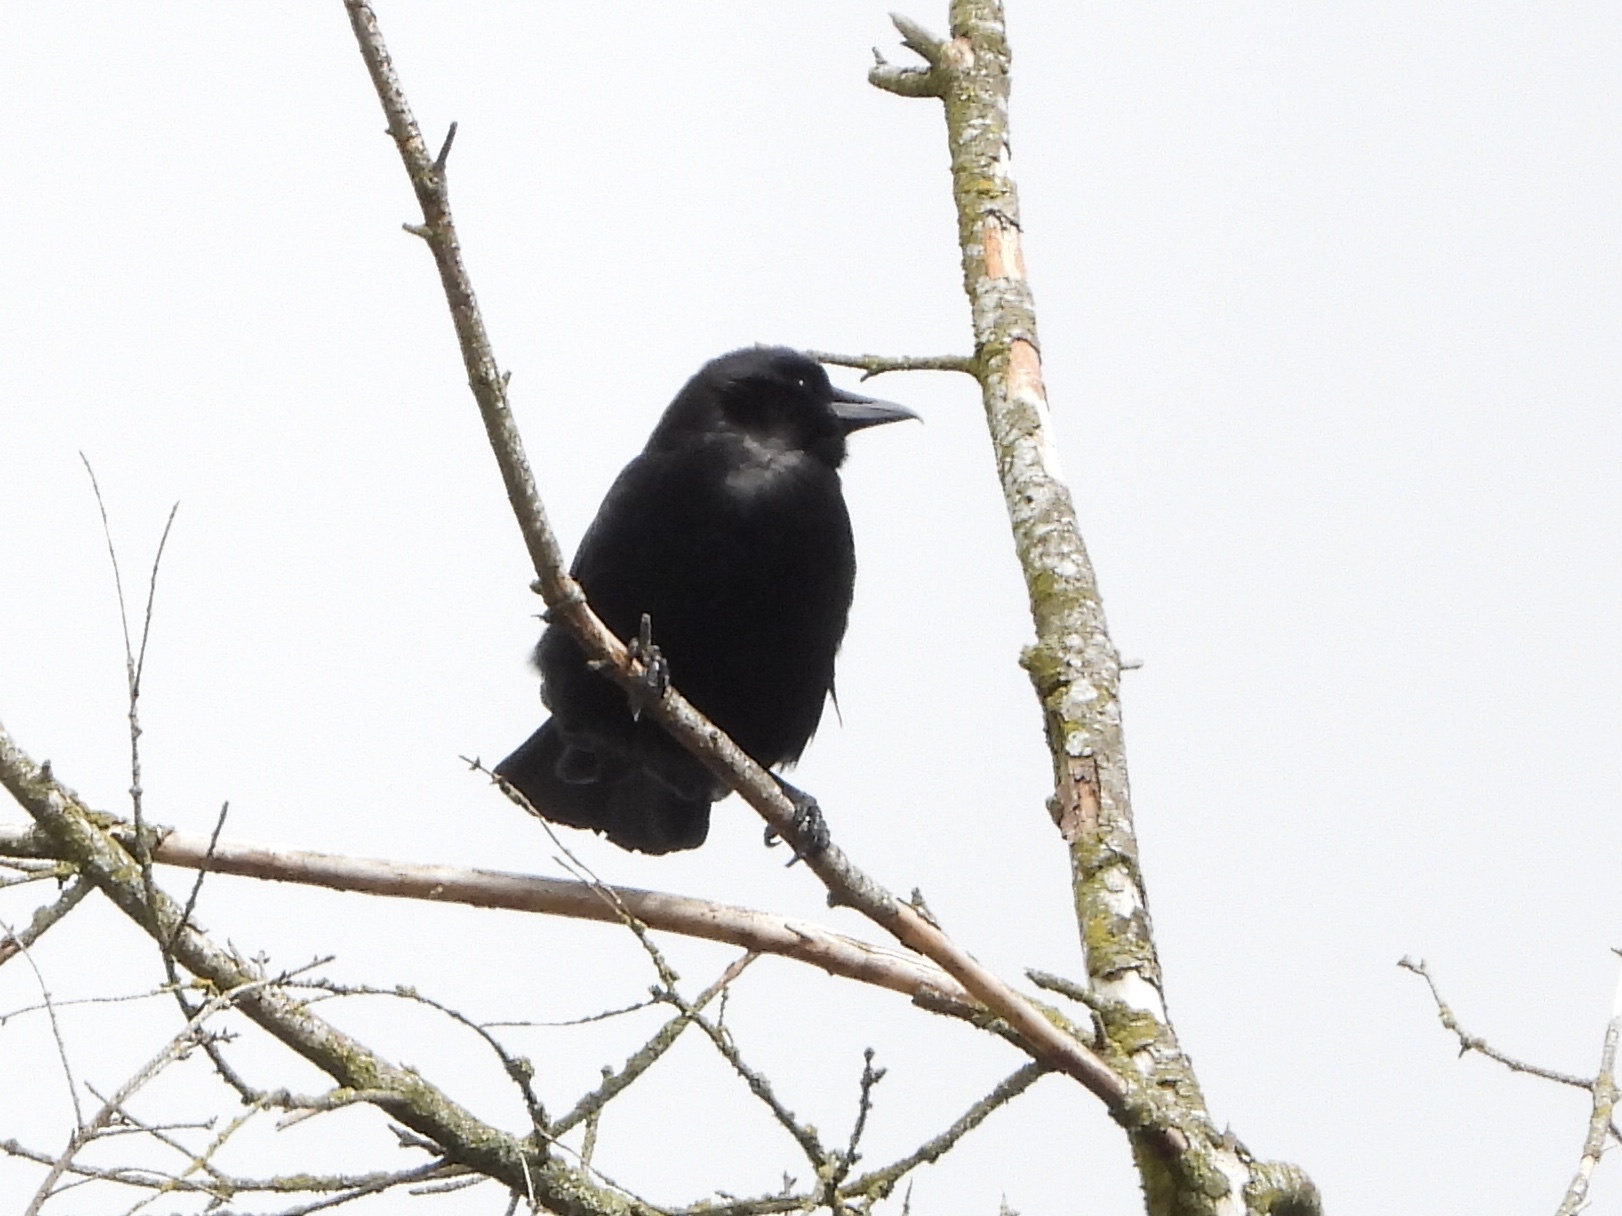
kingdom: Animalia
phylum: Chordata
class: Aves
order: Passeriformes
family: Corvidae
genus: Corvus
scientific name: Corvus brachyrhynchos
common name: American crow
